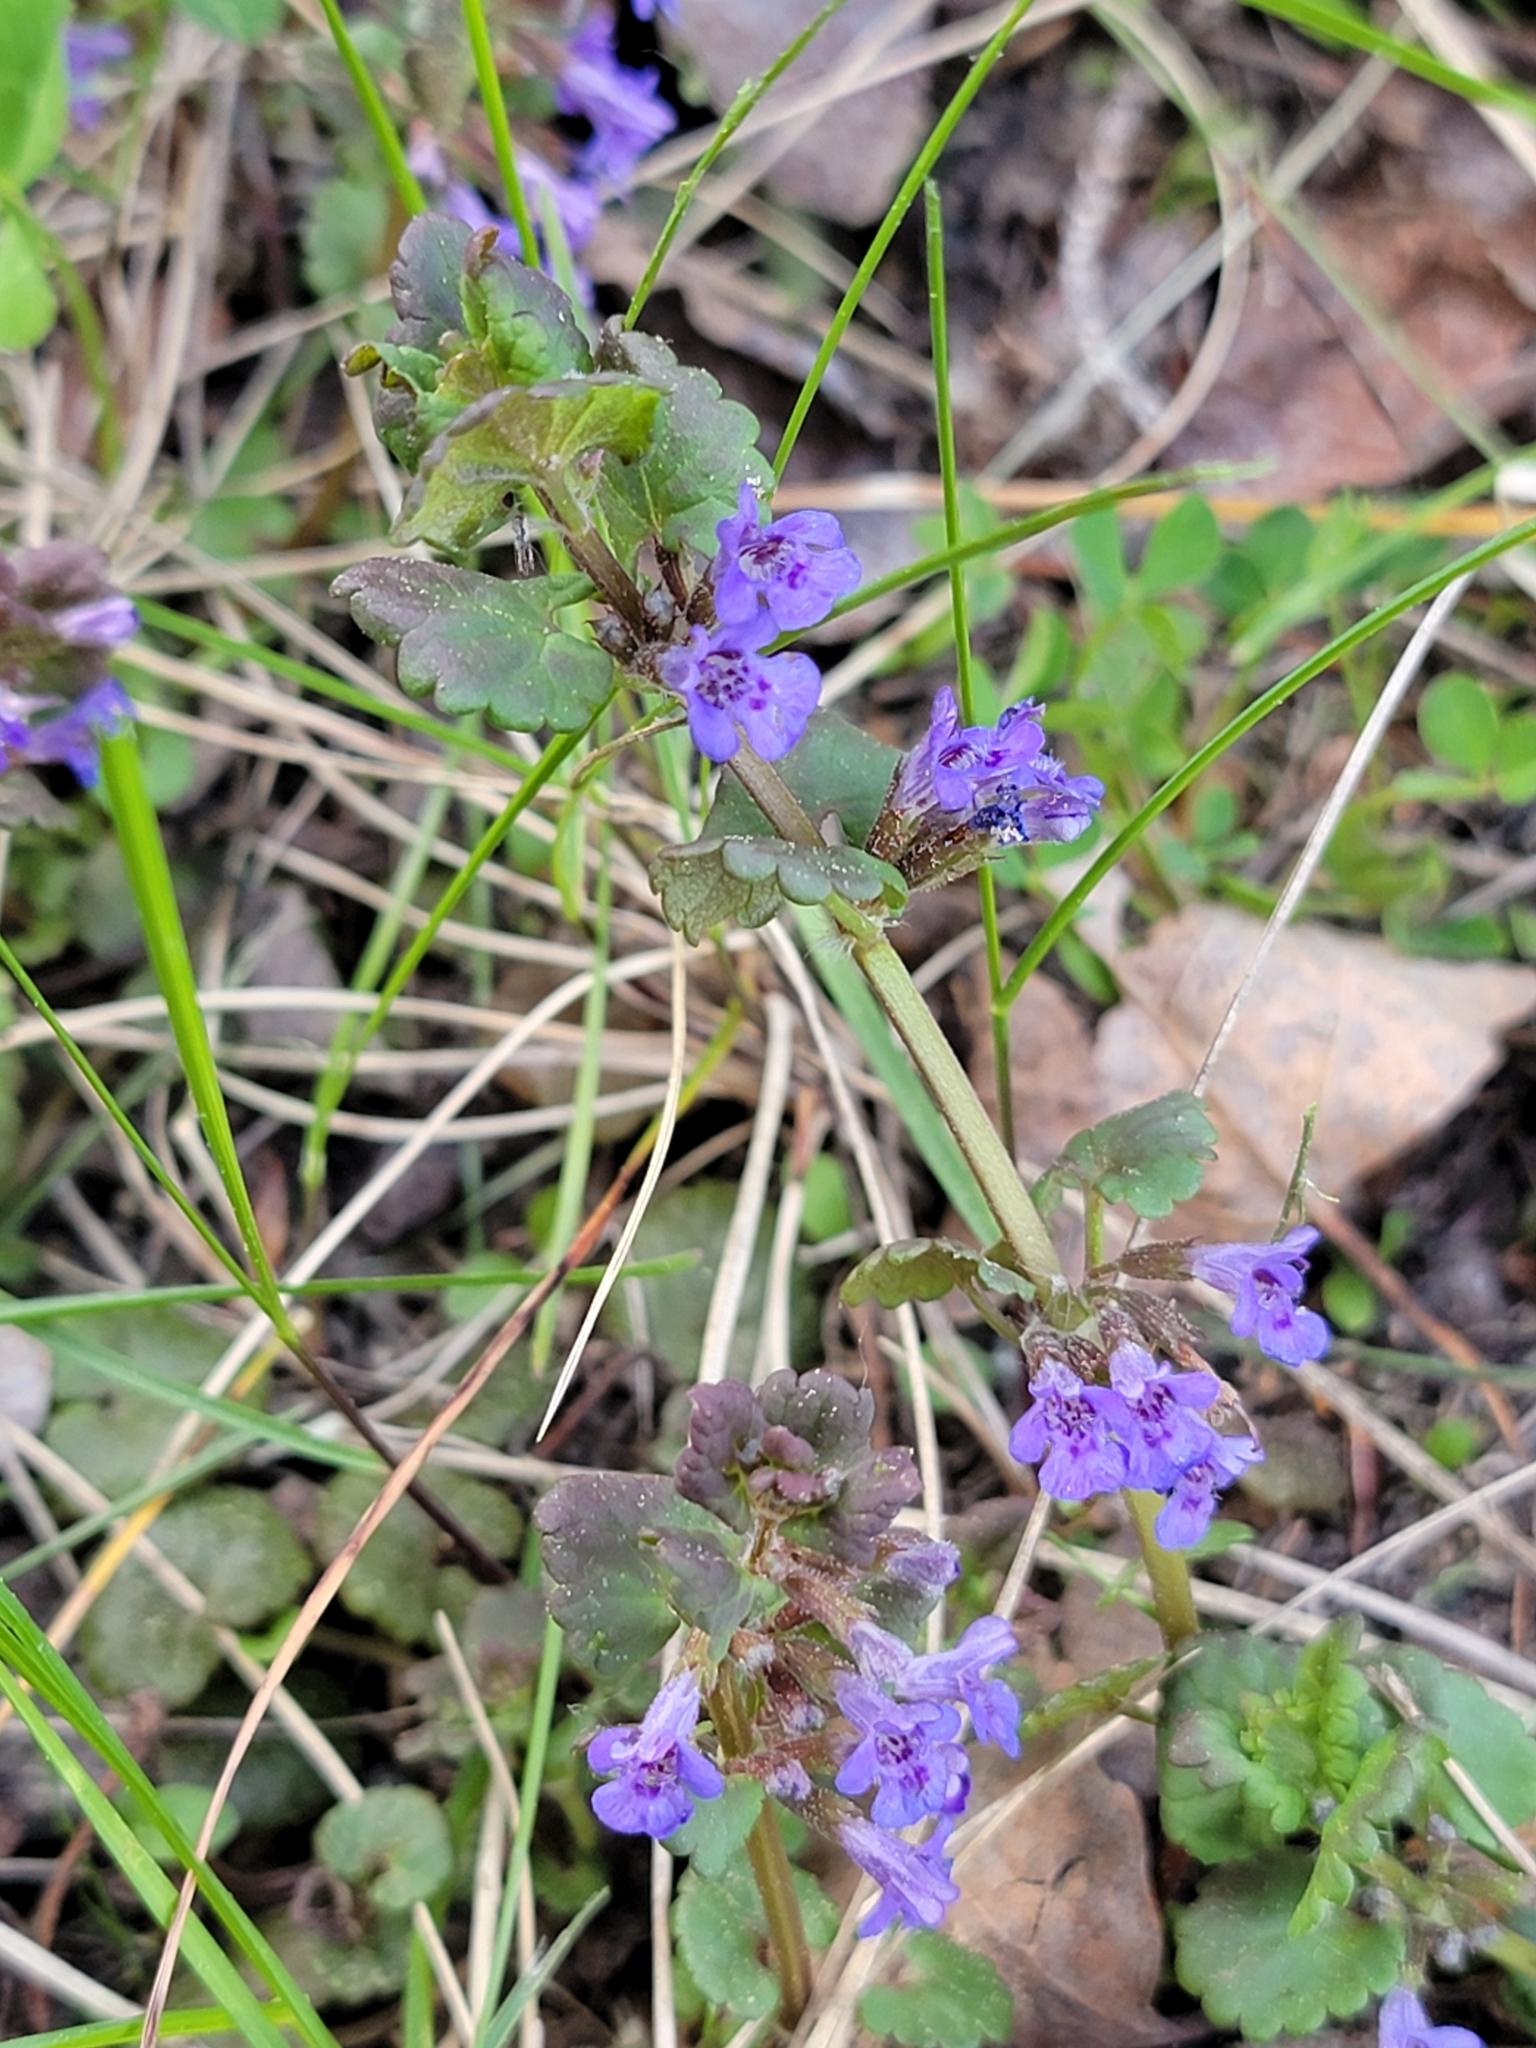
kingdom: Plantae
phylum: Tracheophyta
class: Magnoliopsida
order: Lamiales
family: Lamiaceae
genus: Glechoma
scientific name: Glechoma hederacea
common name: Ground ivy
